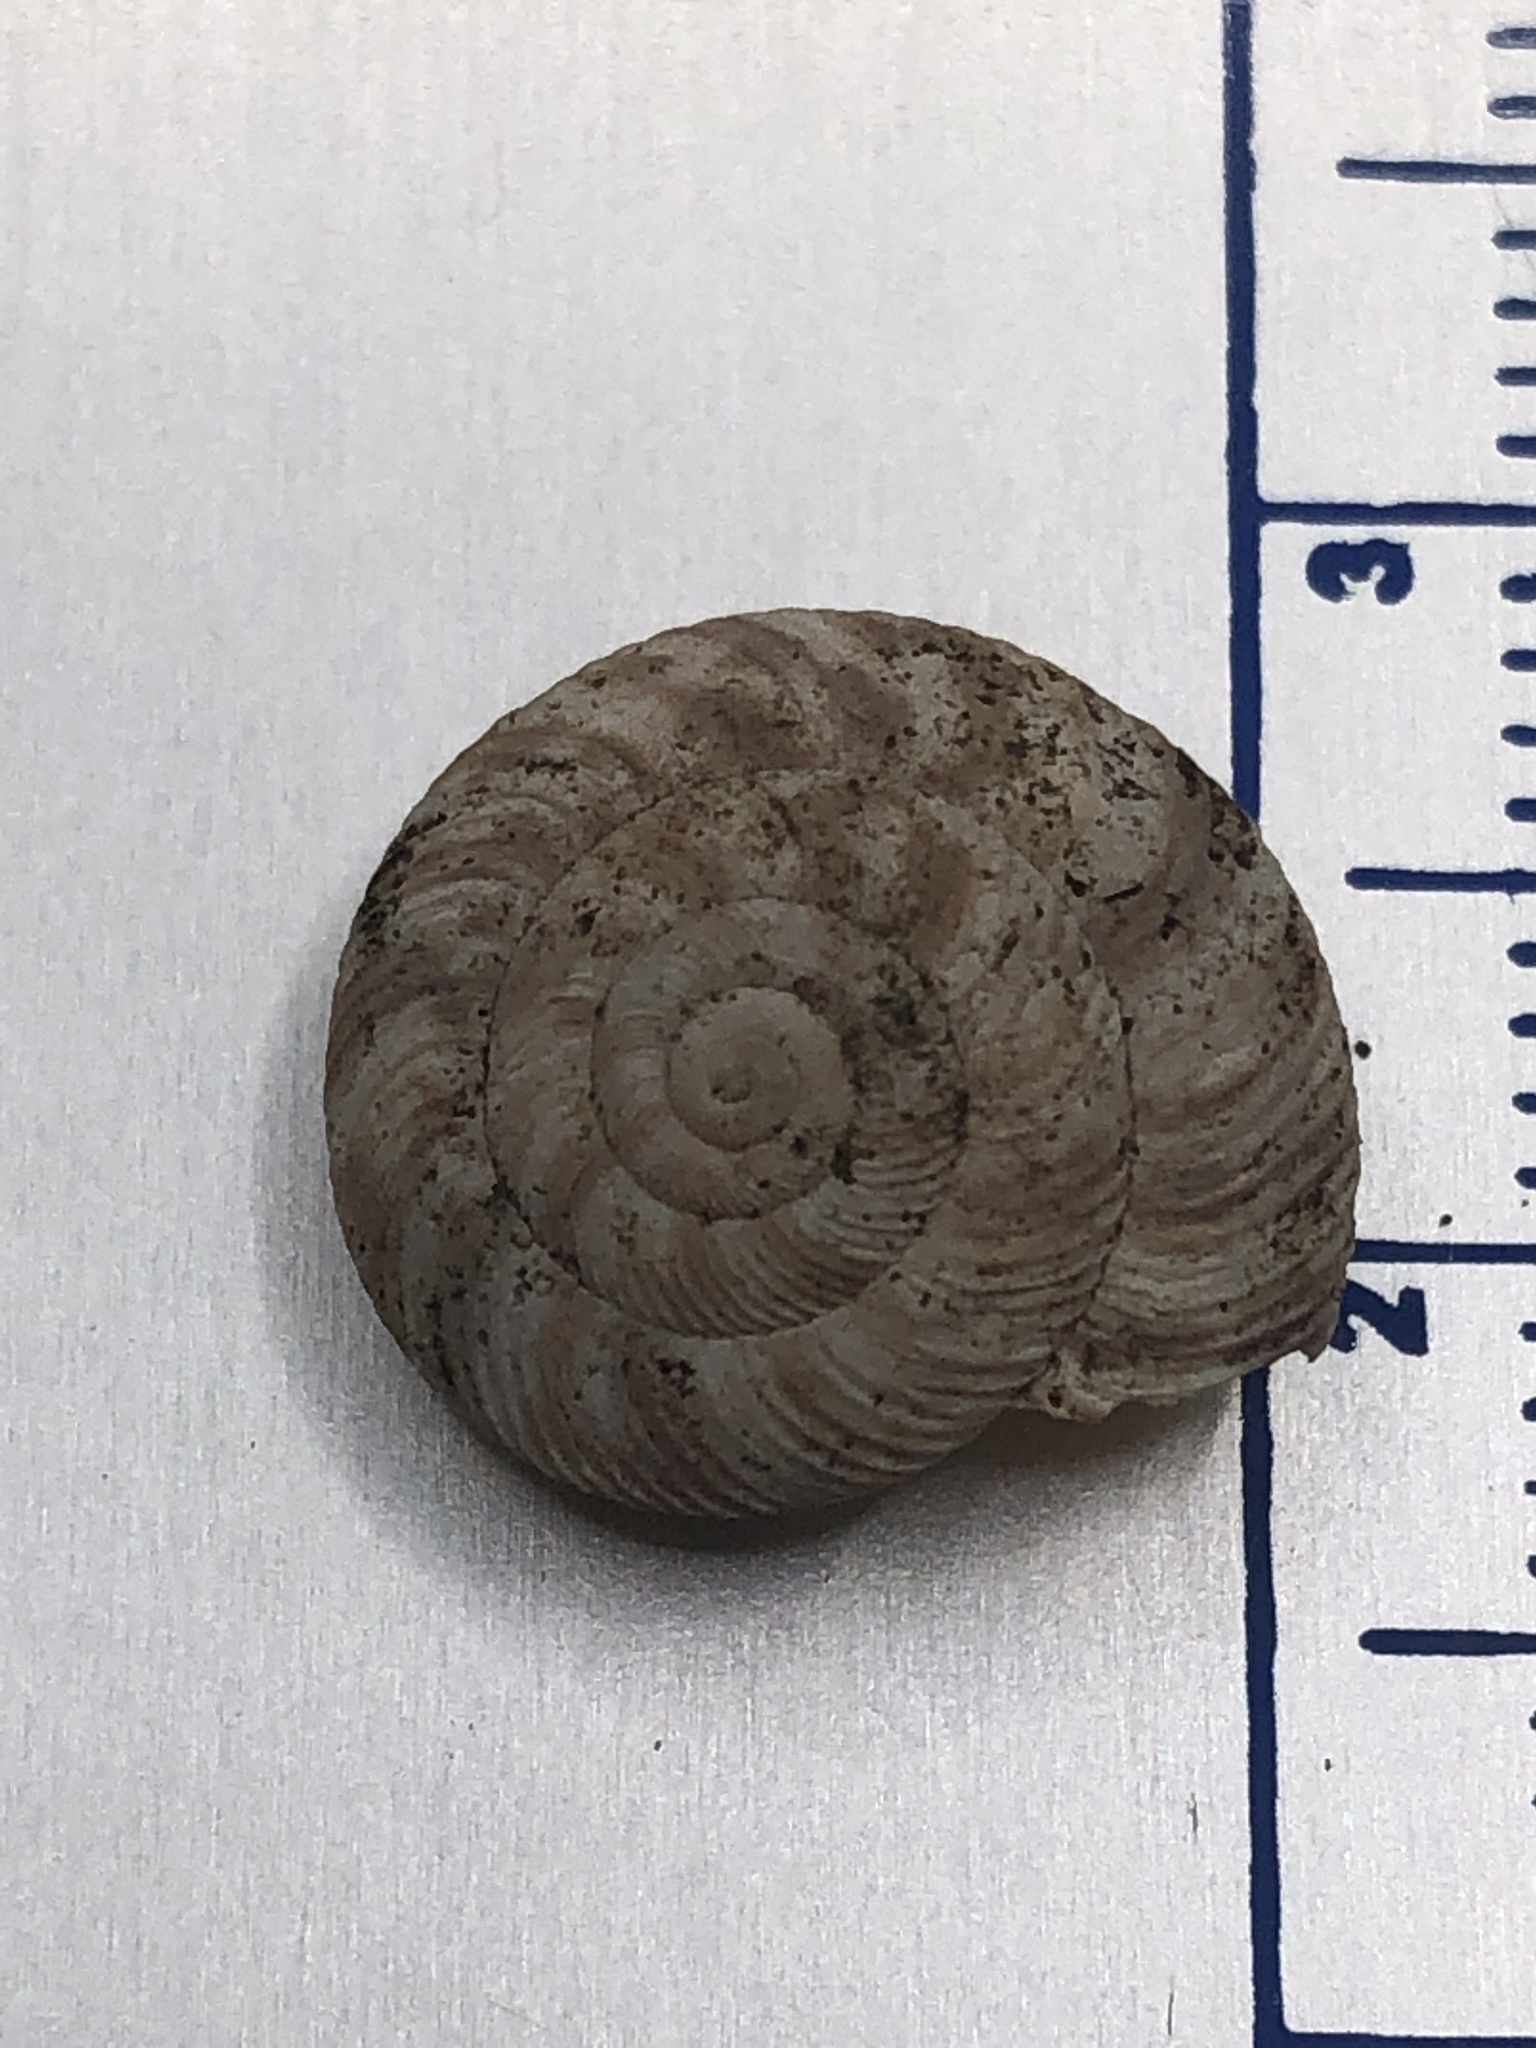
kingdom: Animalia
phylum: Mollusca
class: Gastropoda
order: Stylommatophora
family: Discidae
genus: Anguispira
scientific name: Anguispira alternata
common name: Flamed tigersnail
